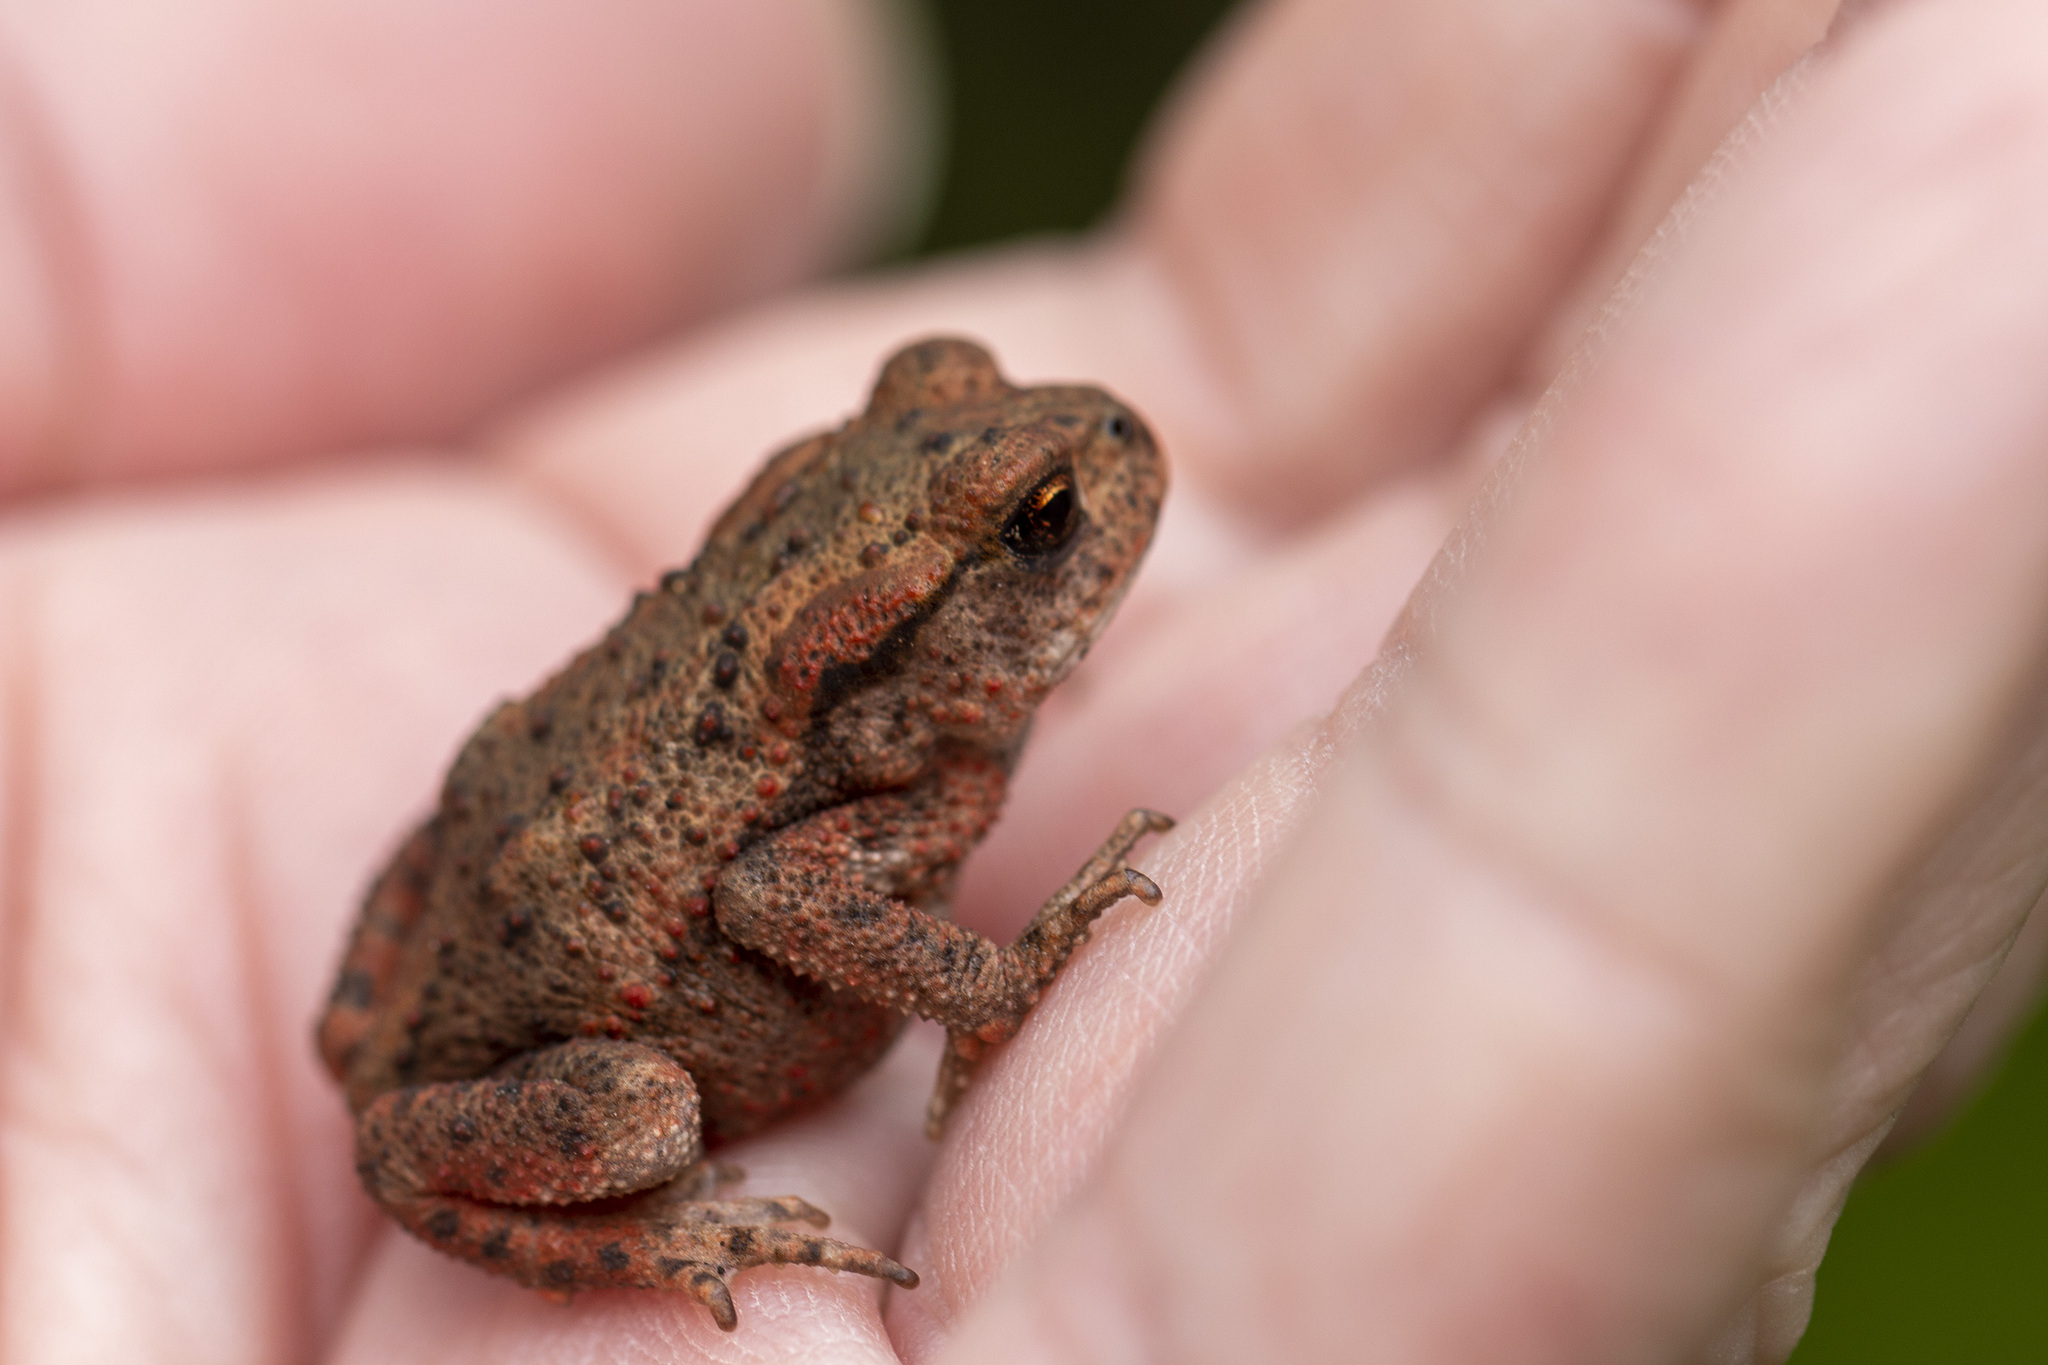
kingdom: Animalia
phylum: Chordata
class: Amphibia
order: Anura
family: Bufonidae
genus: Bufo
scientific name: Bufo bufo
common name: Common toad
